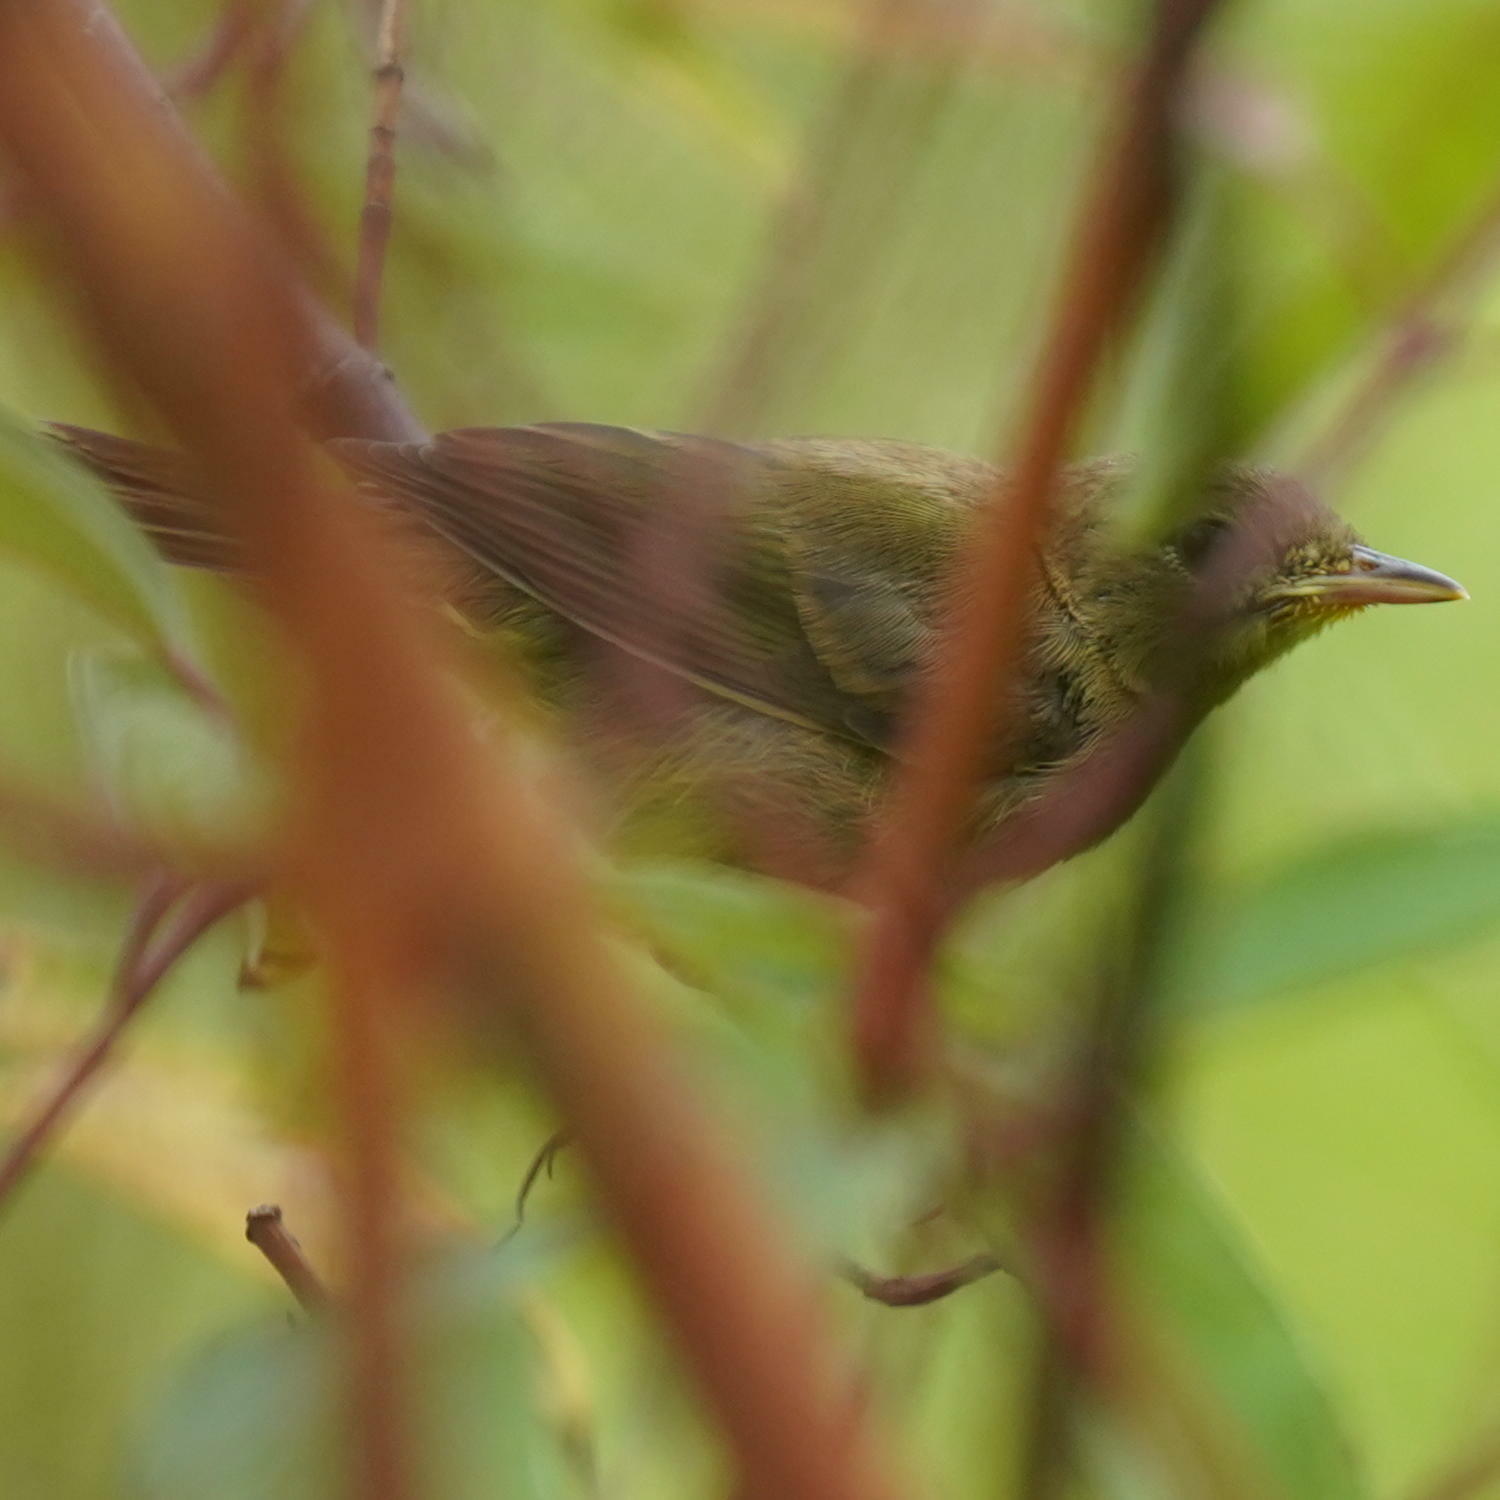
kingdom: Animalia
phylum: Chordata
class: Aves
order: Passeriformes
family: Parulidae
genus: Geothlypis
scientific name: Geothlypis trichas
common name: Common yellowthroat
